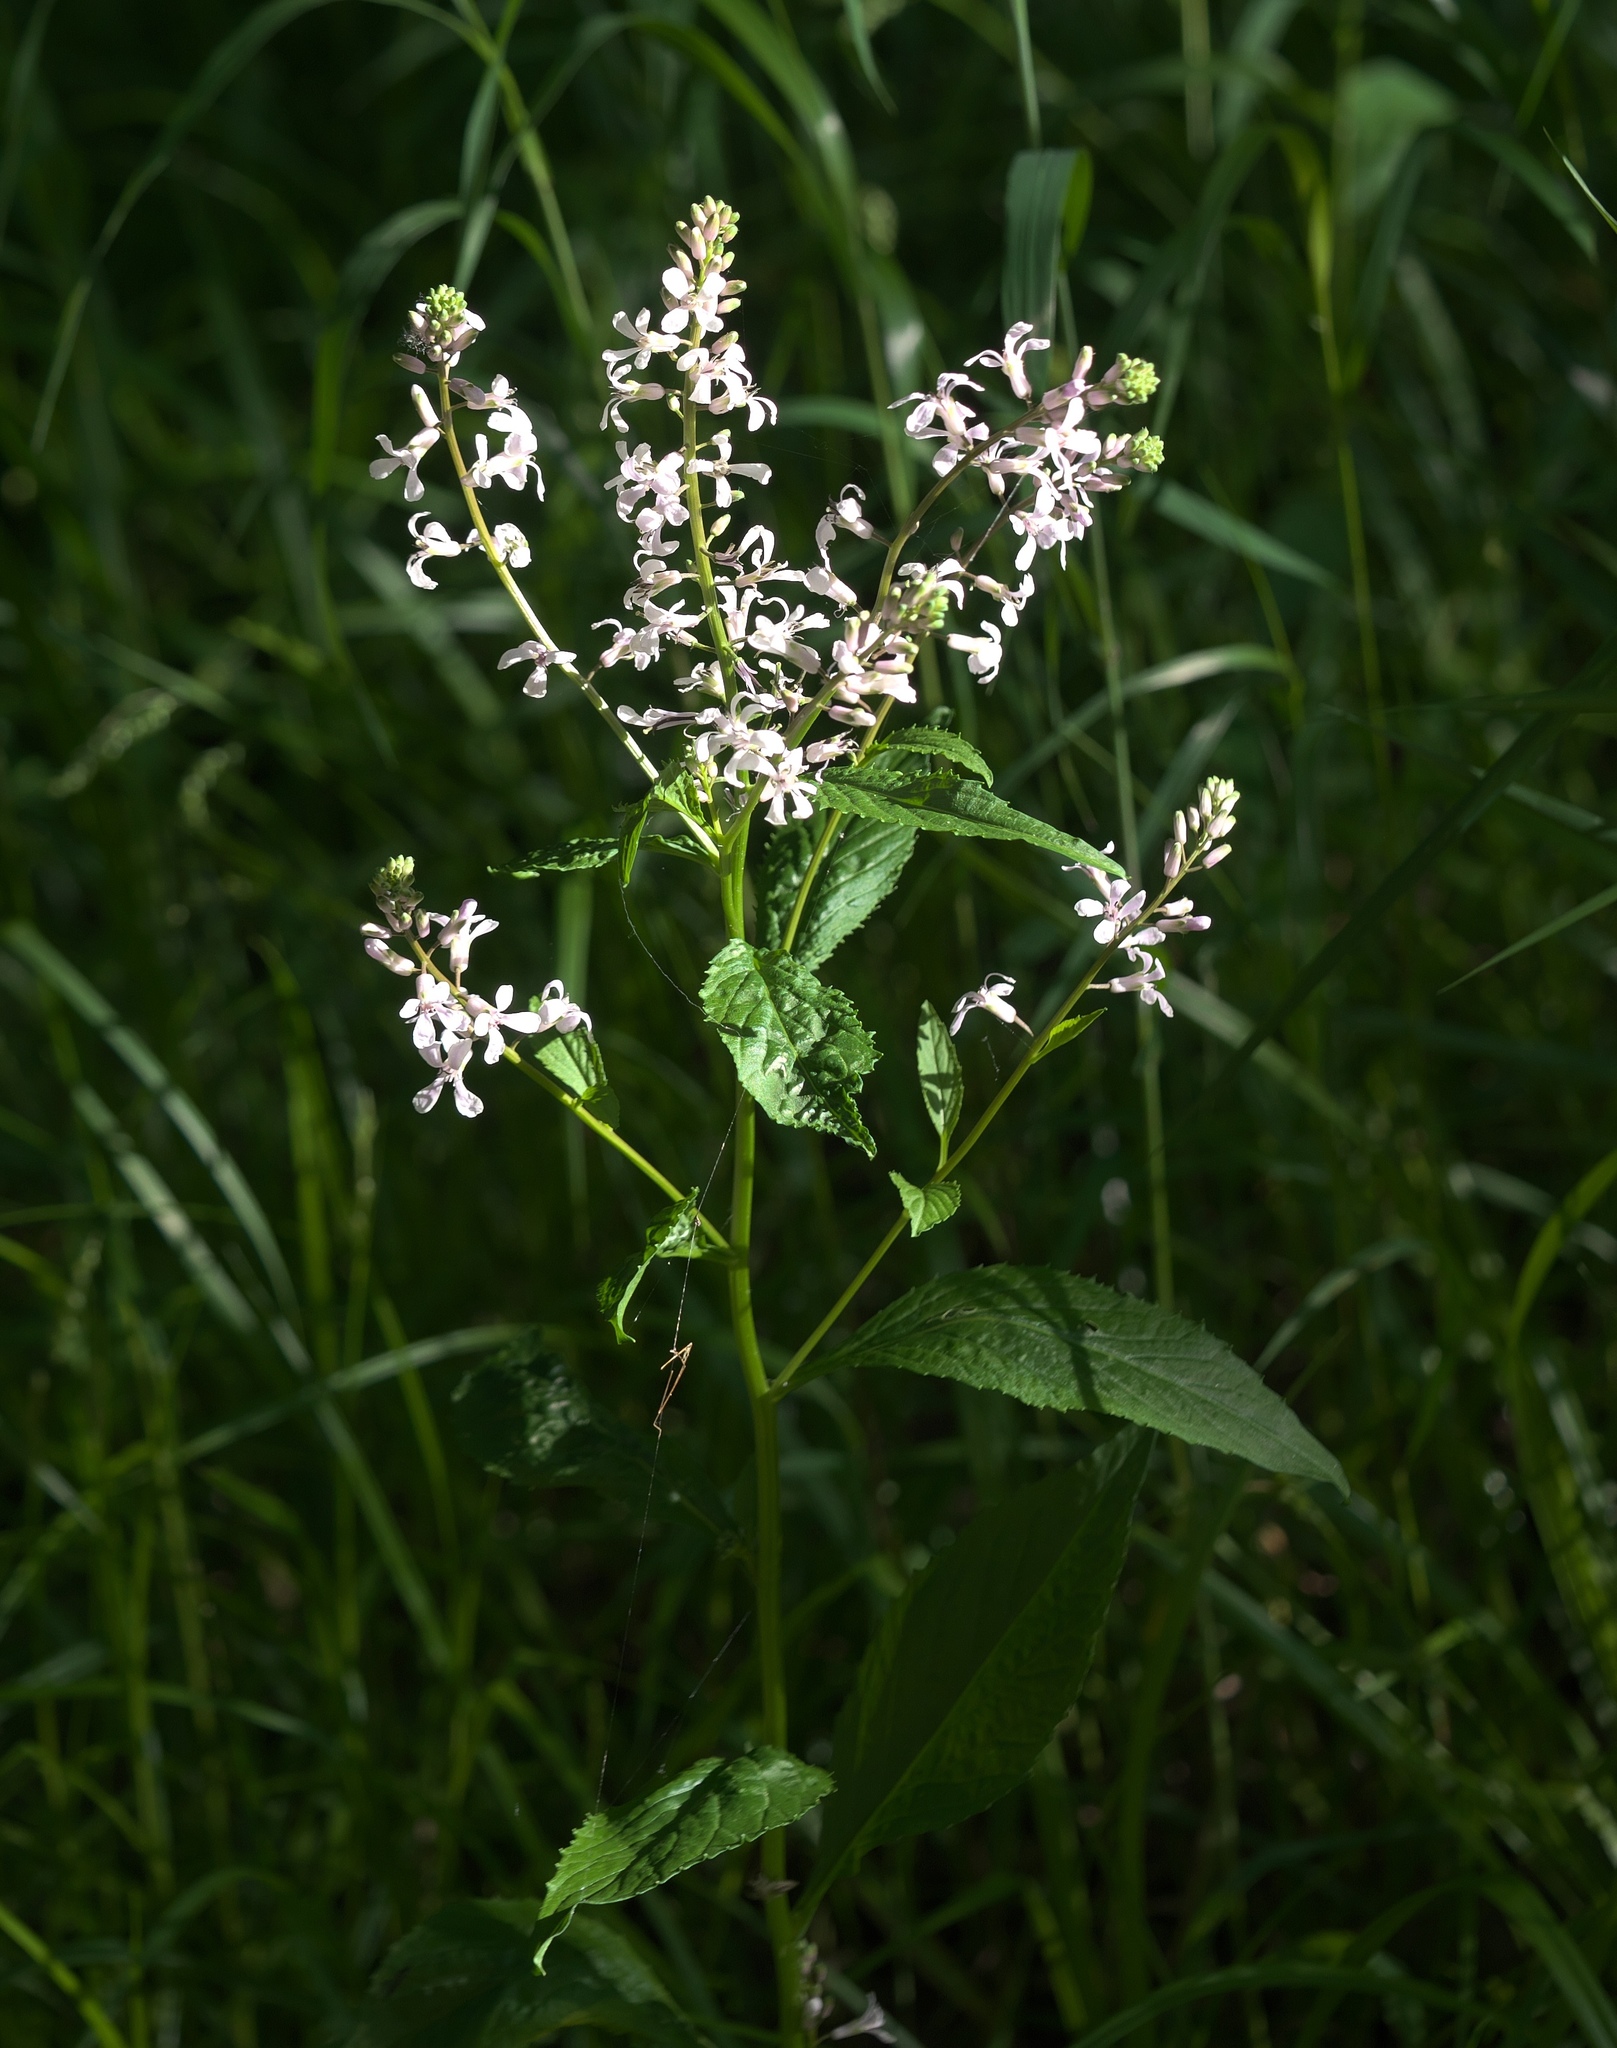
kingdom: Plantae
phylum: Tracheophyta
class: Magnoliopsida
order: Brassicales
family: Brassicaceae
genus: Iodanthus
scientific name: Iodanthus pinnatifidus
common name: Violet rocket
